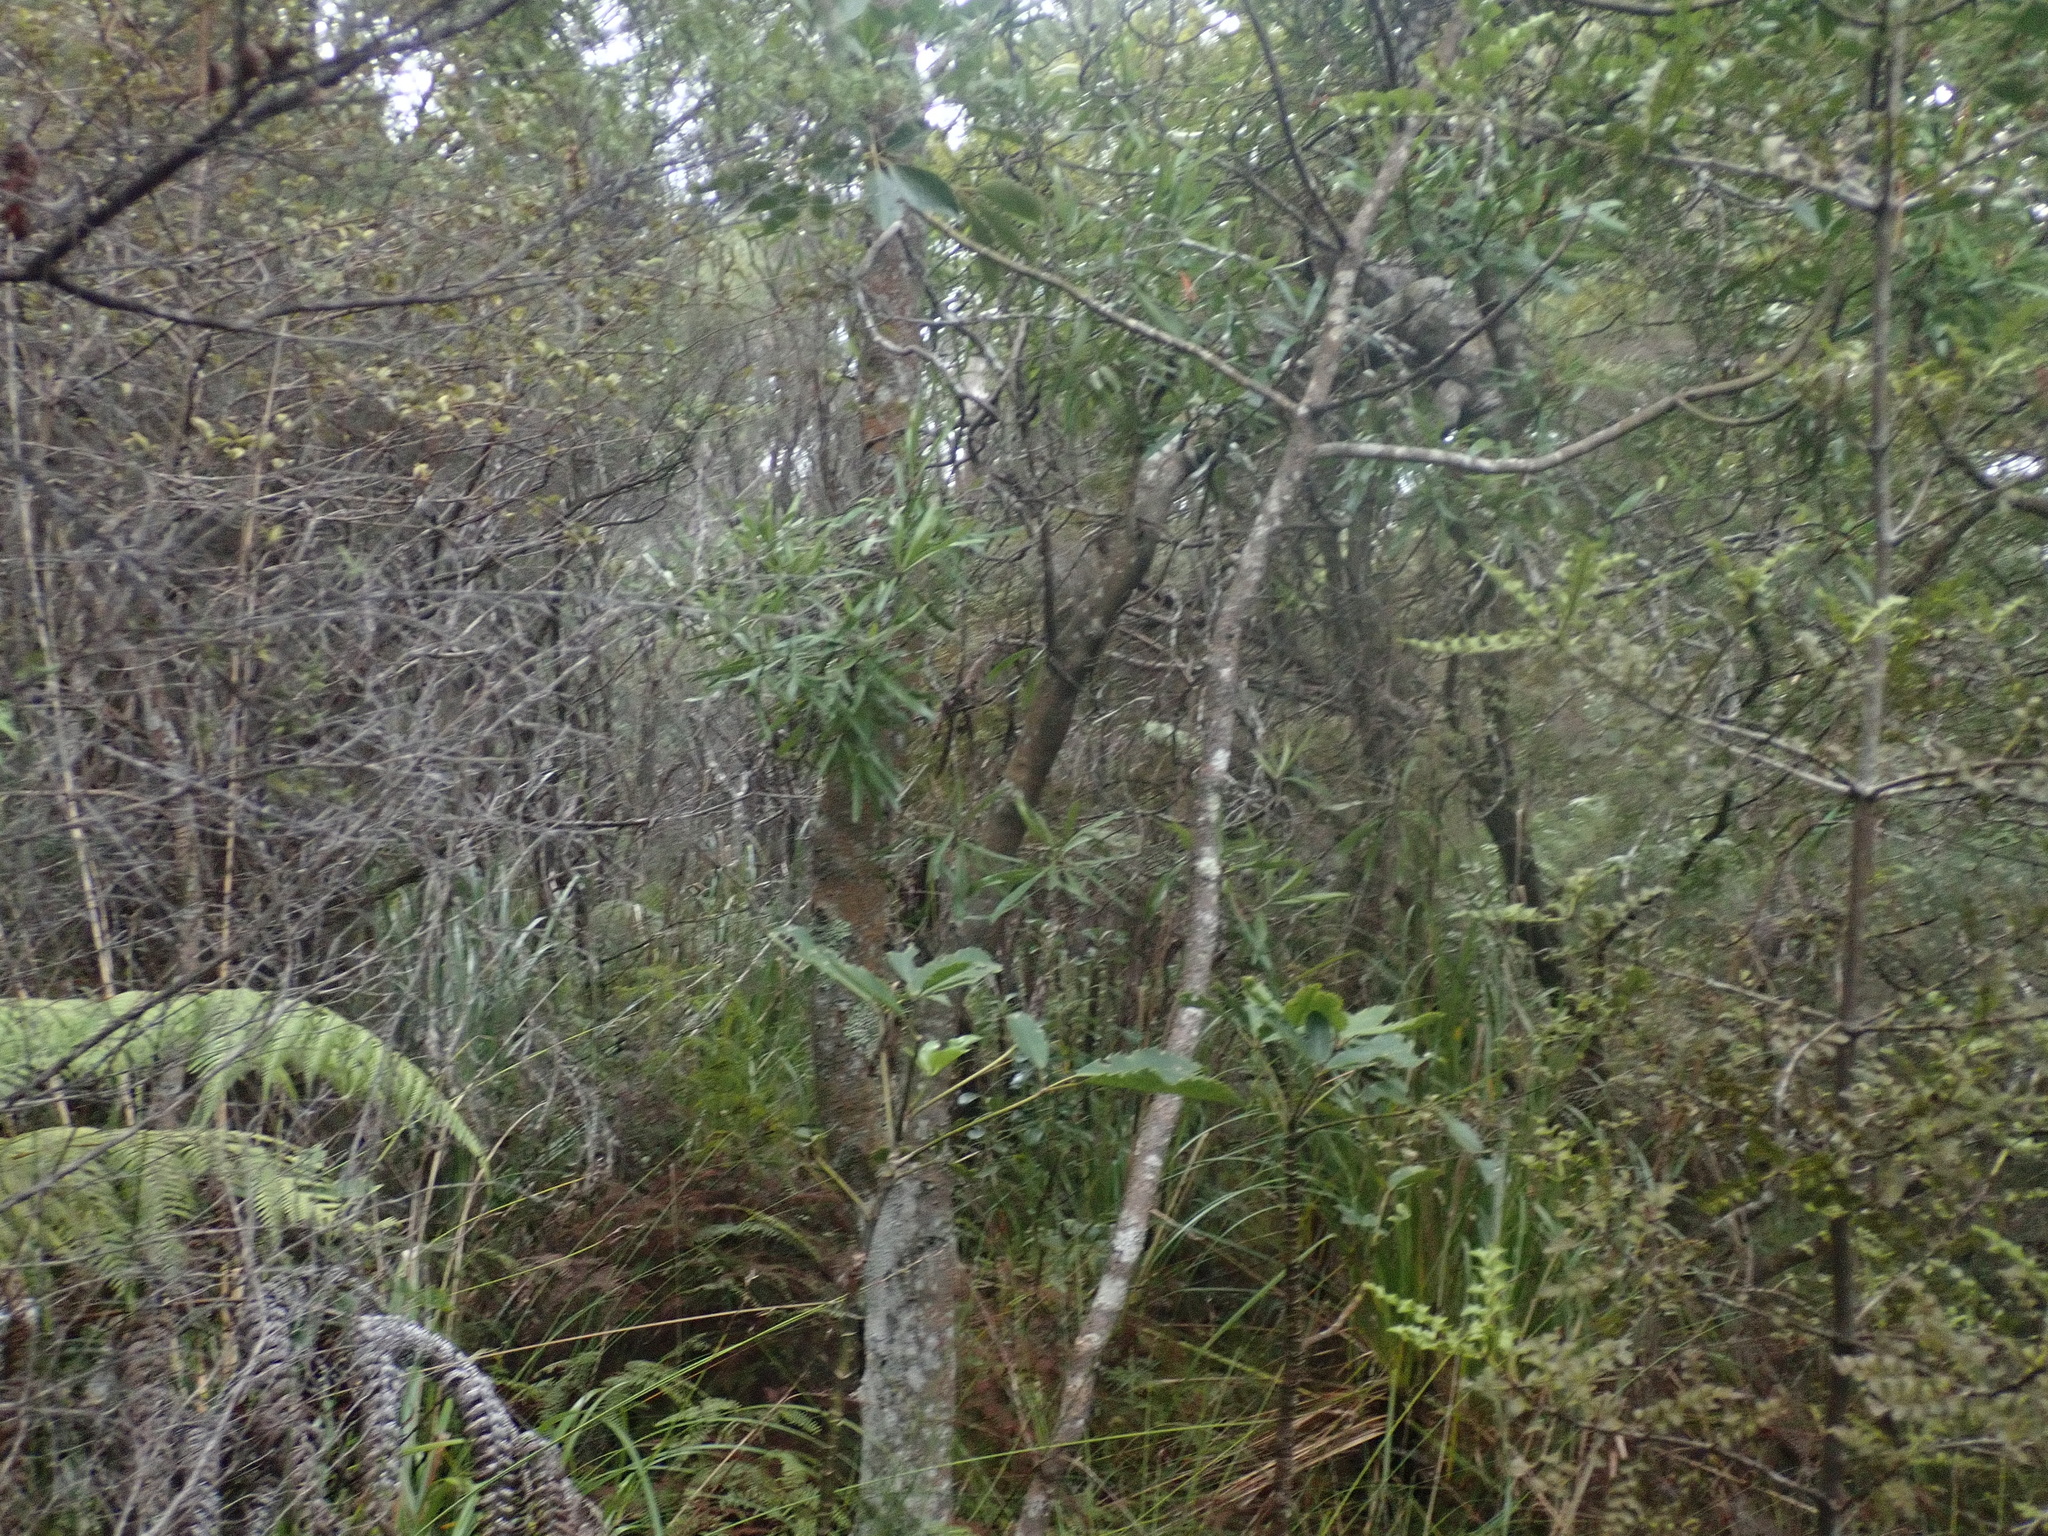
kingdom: Plantae
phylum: Tracheophyta
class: Magnoliopsida
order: Proteales
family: Proteaceae
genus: Toronia
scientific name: Toronia toru
